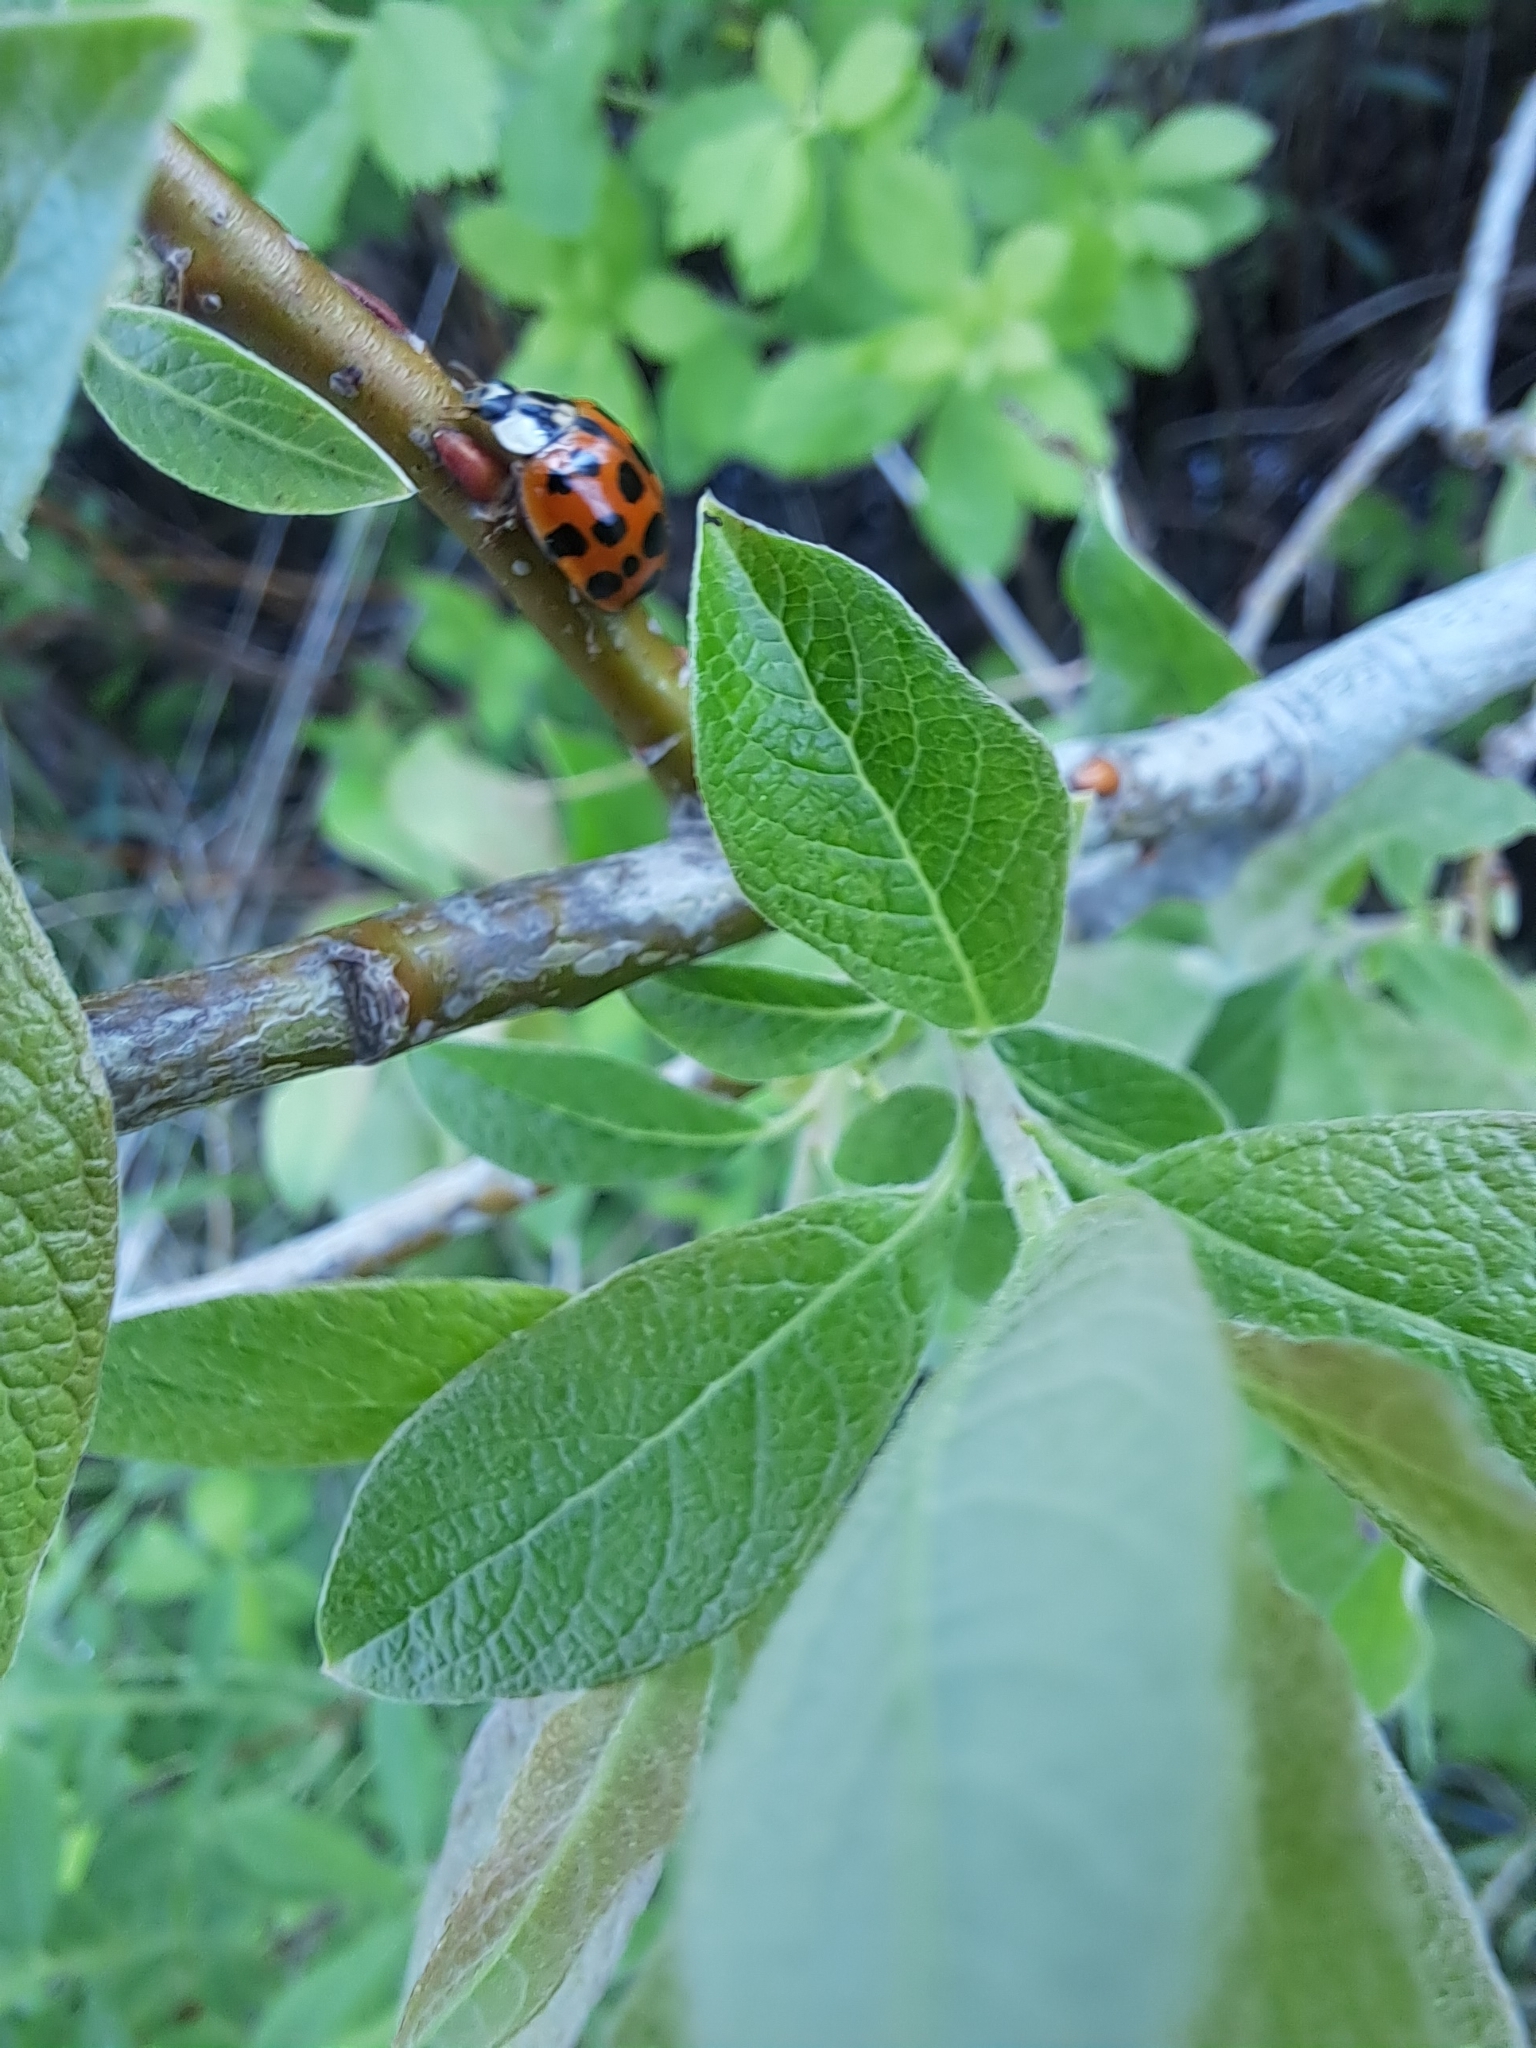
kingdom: Animalia
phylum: Arthropoda
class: Insecta
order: Coleoptera
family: Coccinellidae
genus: Harmonia
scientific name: Harmonia axyridis
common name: Harlequin ladybird
